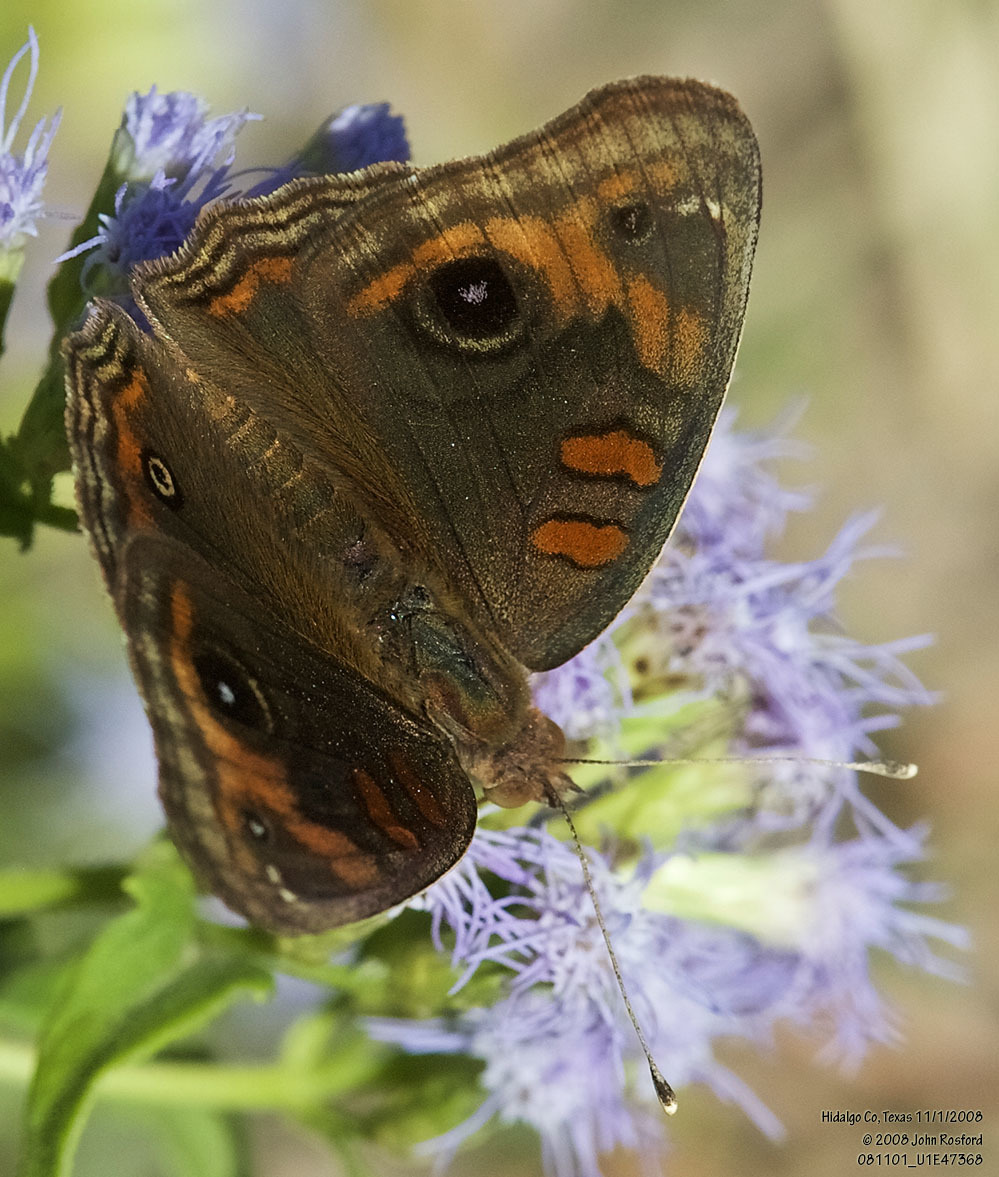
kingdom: Animalia
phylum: Arthropoda
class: Insecta
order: Lepidoptera
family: Nymphalidae
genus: Junonia
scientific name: Junonia stemosa
